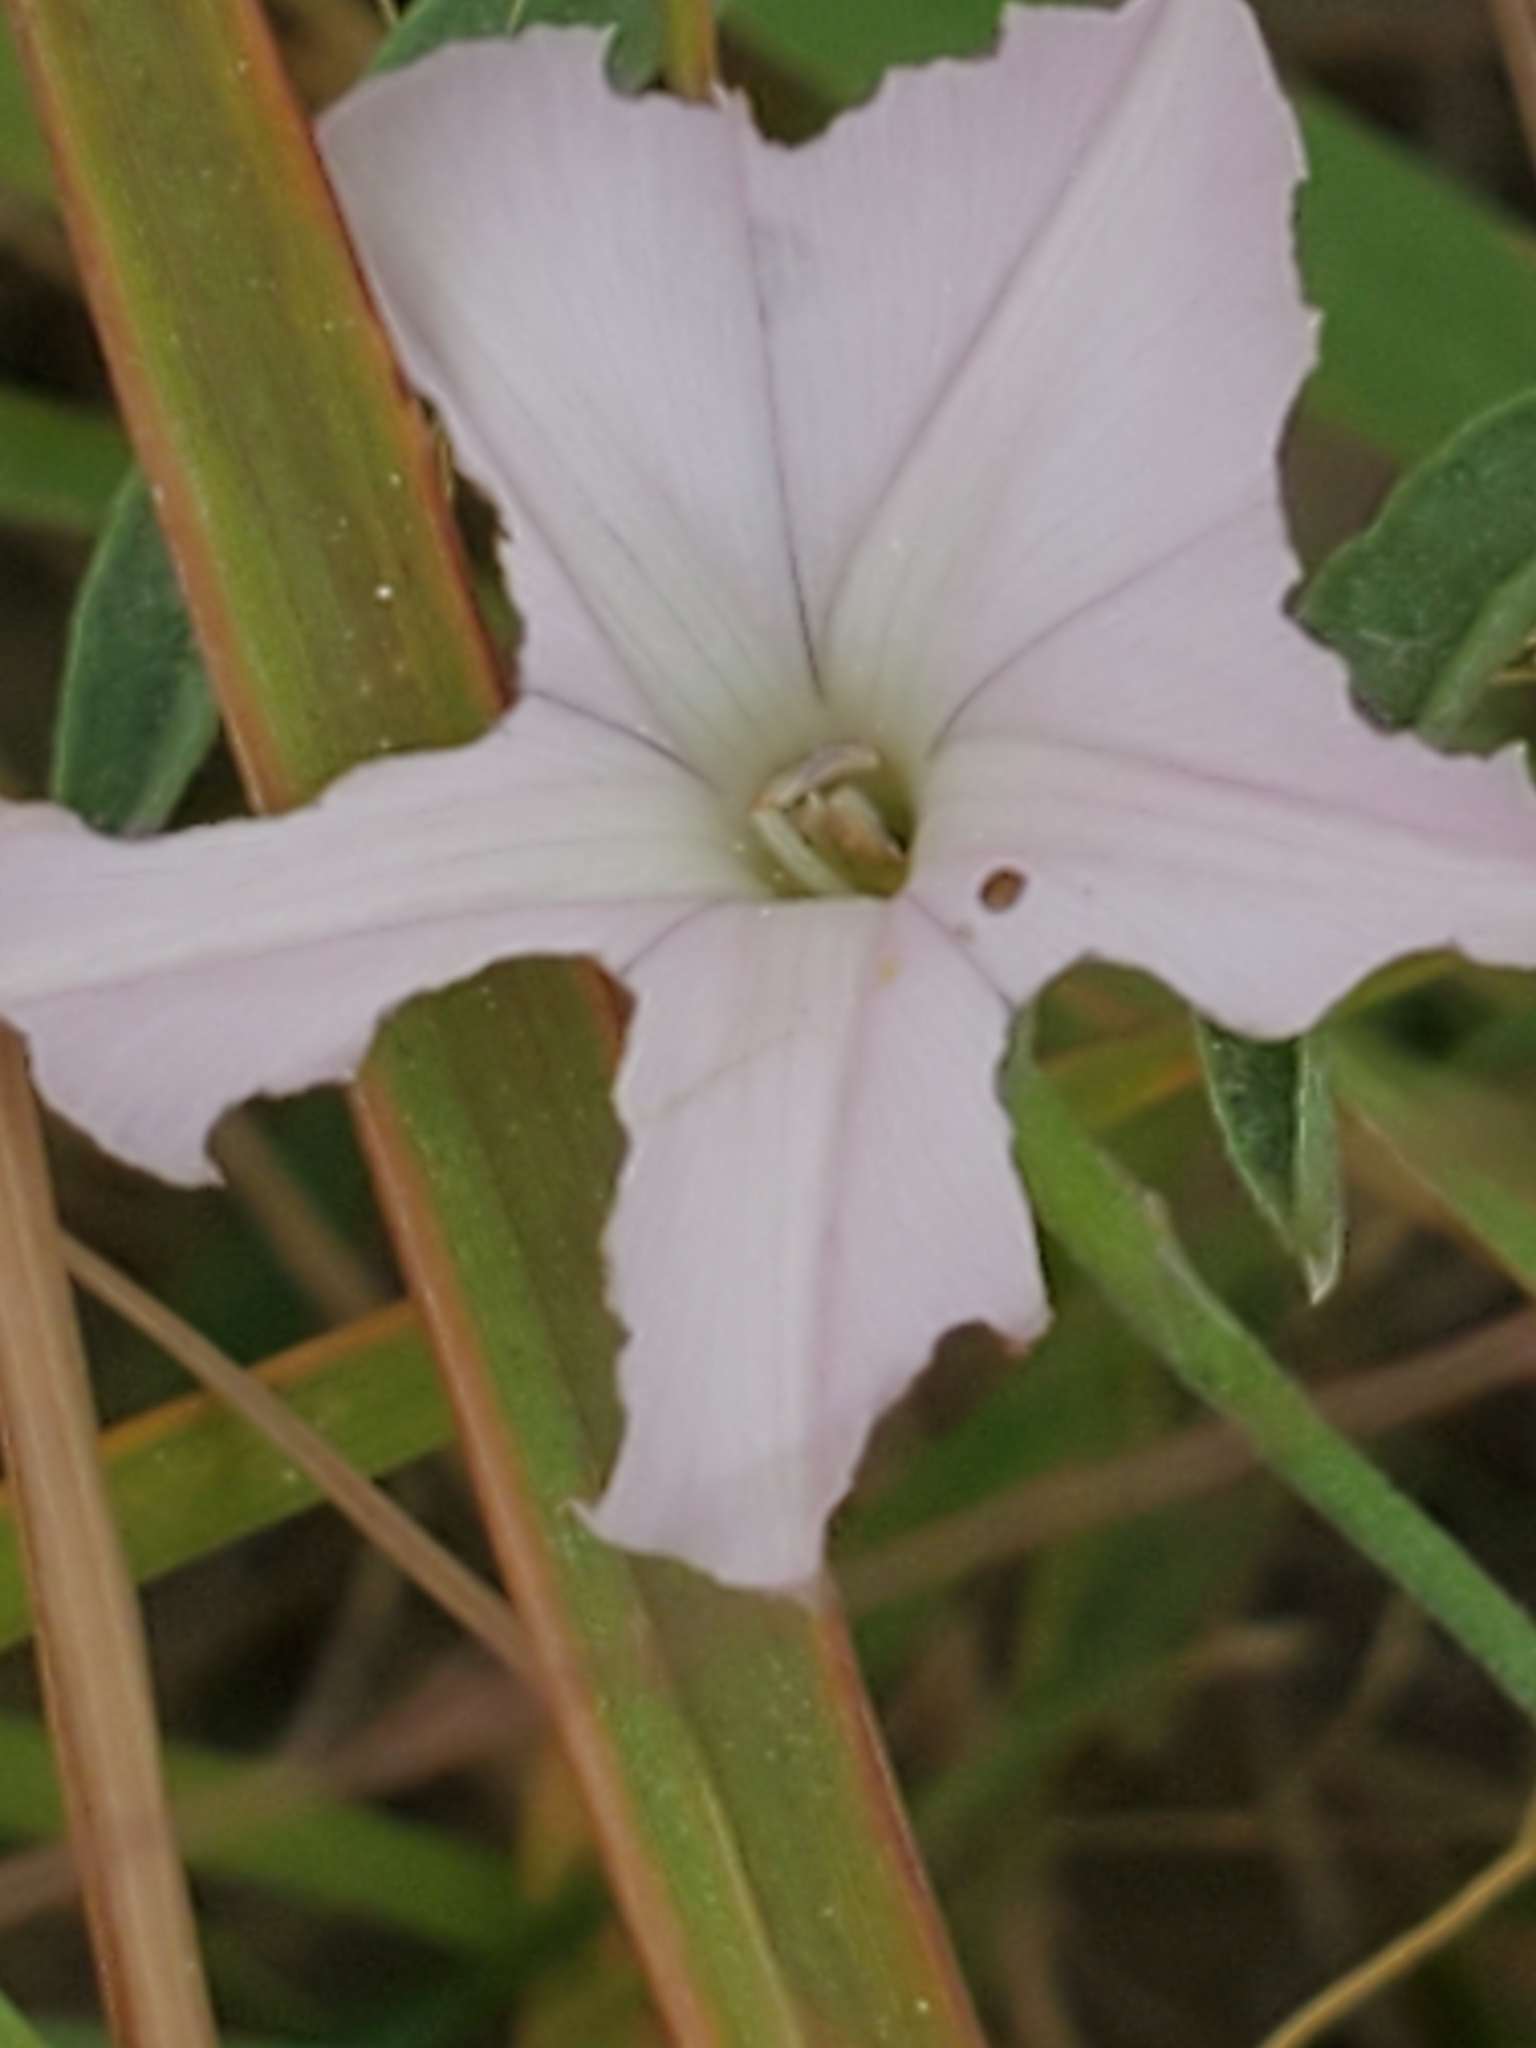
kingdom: Plantae
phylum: Tracheophyta
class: Magnoliopsida
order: Solanales
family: Convolvulaceae
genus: Convolvulus
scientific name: Convolvulus equitans
